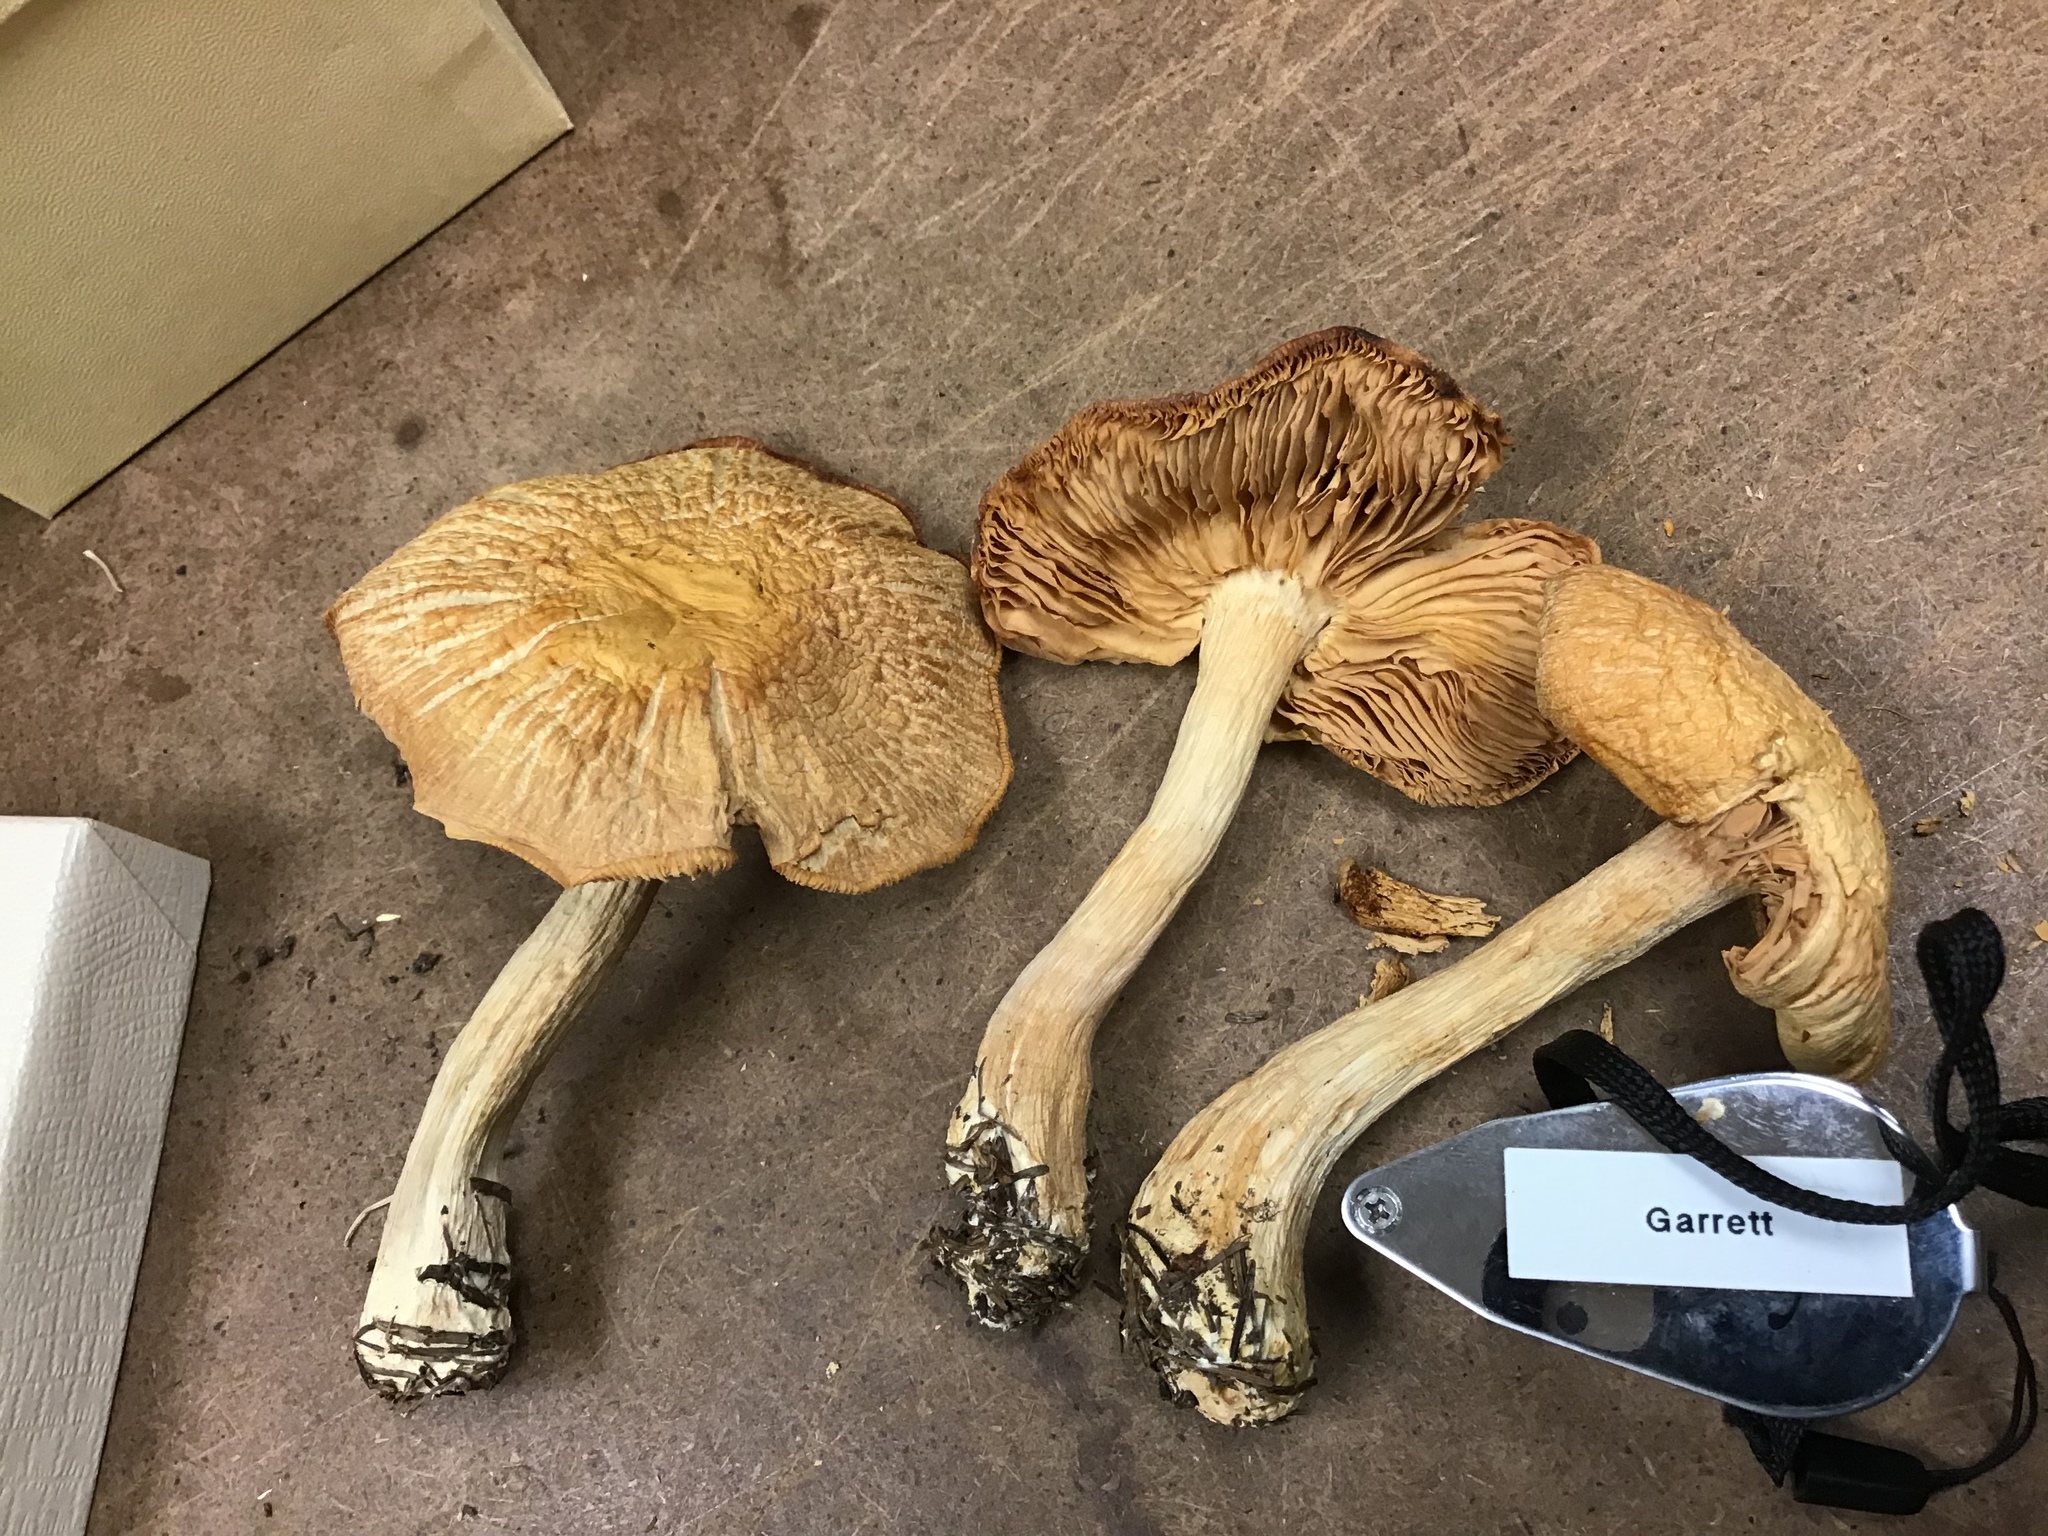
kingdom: Fungi
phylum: Basidiomycota
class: Agaricomycetes
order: Agaricales
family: Entolomataceae
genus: Entoloma
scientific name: Entoloma subsinuatum
